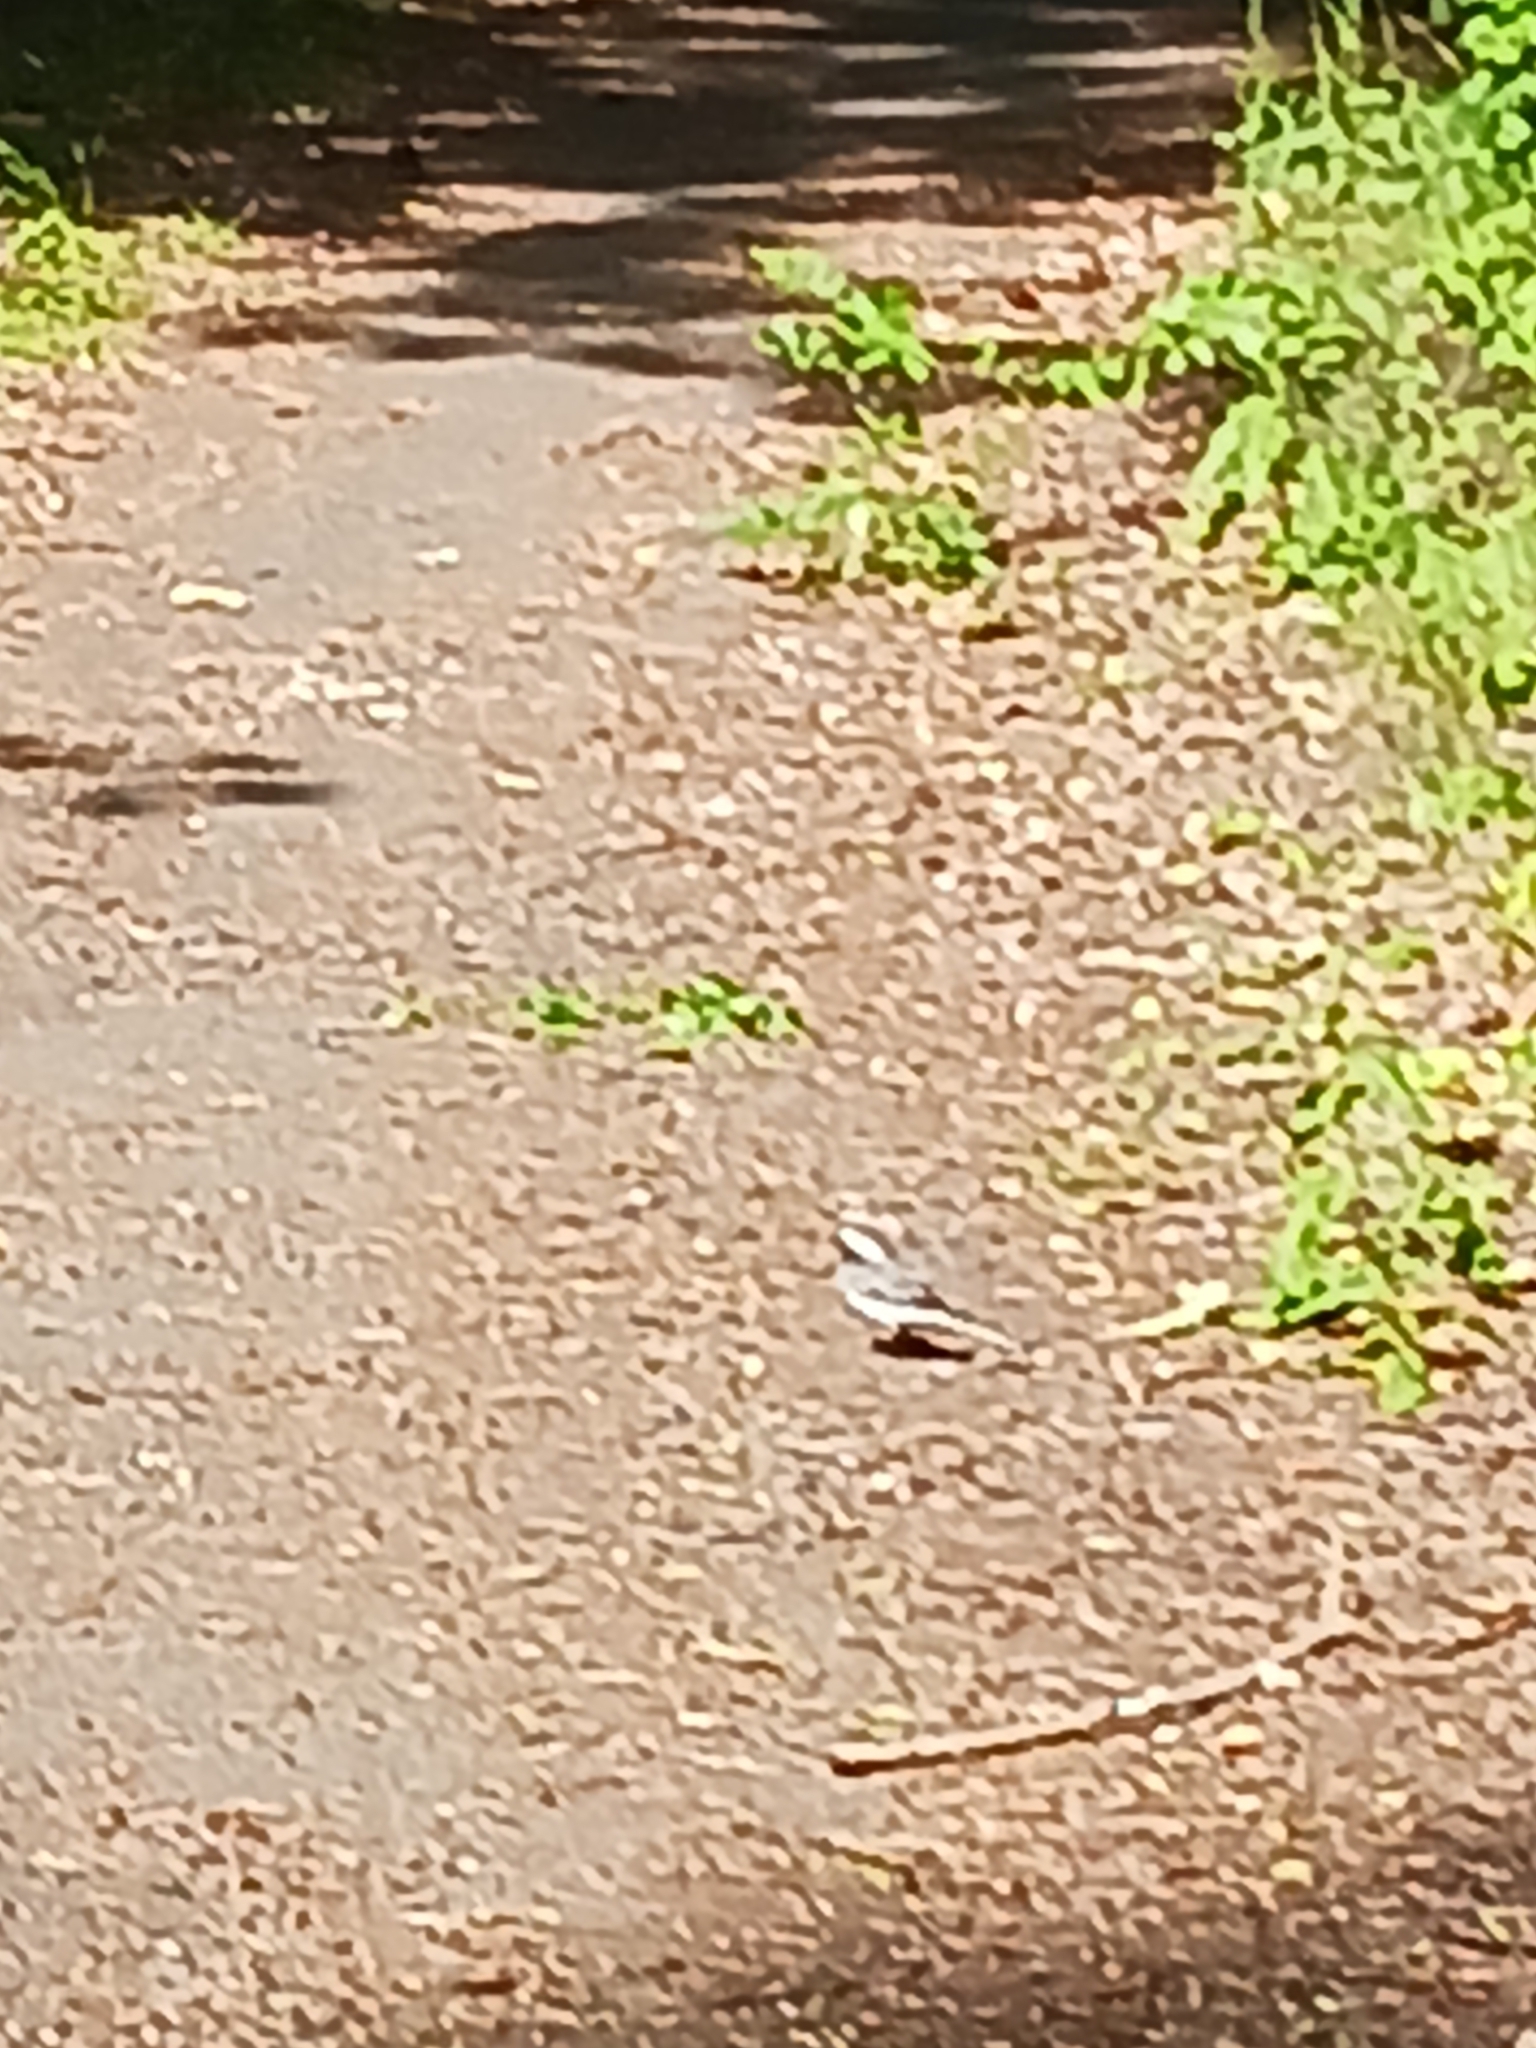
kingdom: Animalia
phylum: Chordata
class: Aves
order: Passeriformes
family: Motacillidae
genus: Motacilla
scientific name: Motacilla alba
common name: White wagtail
